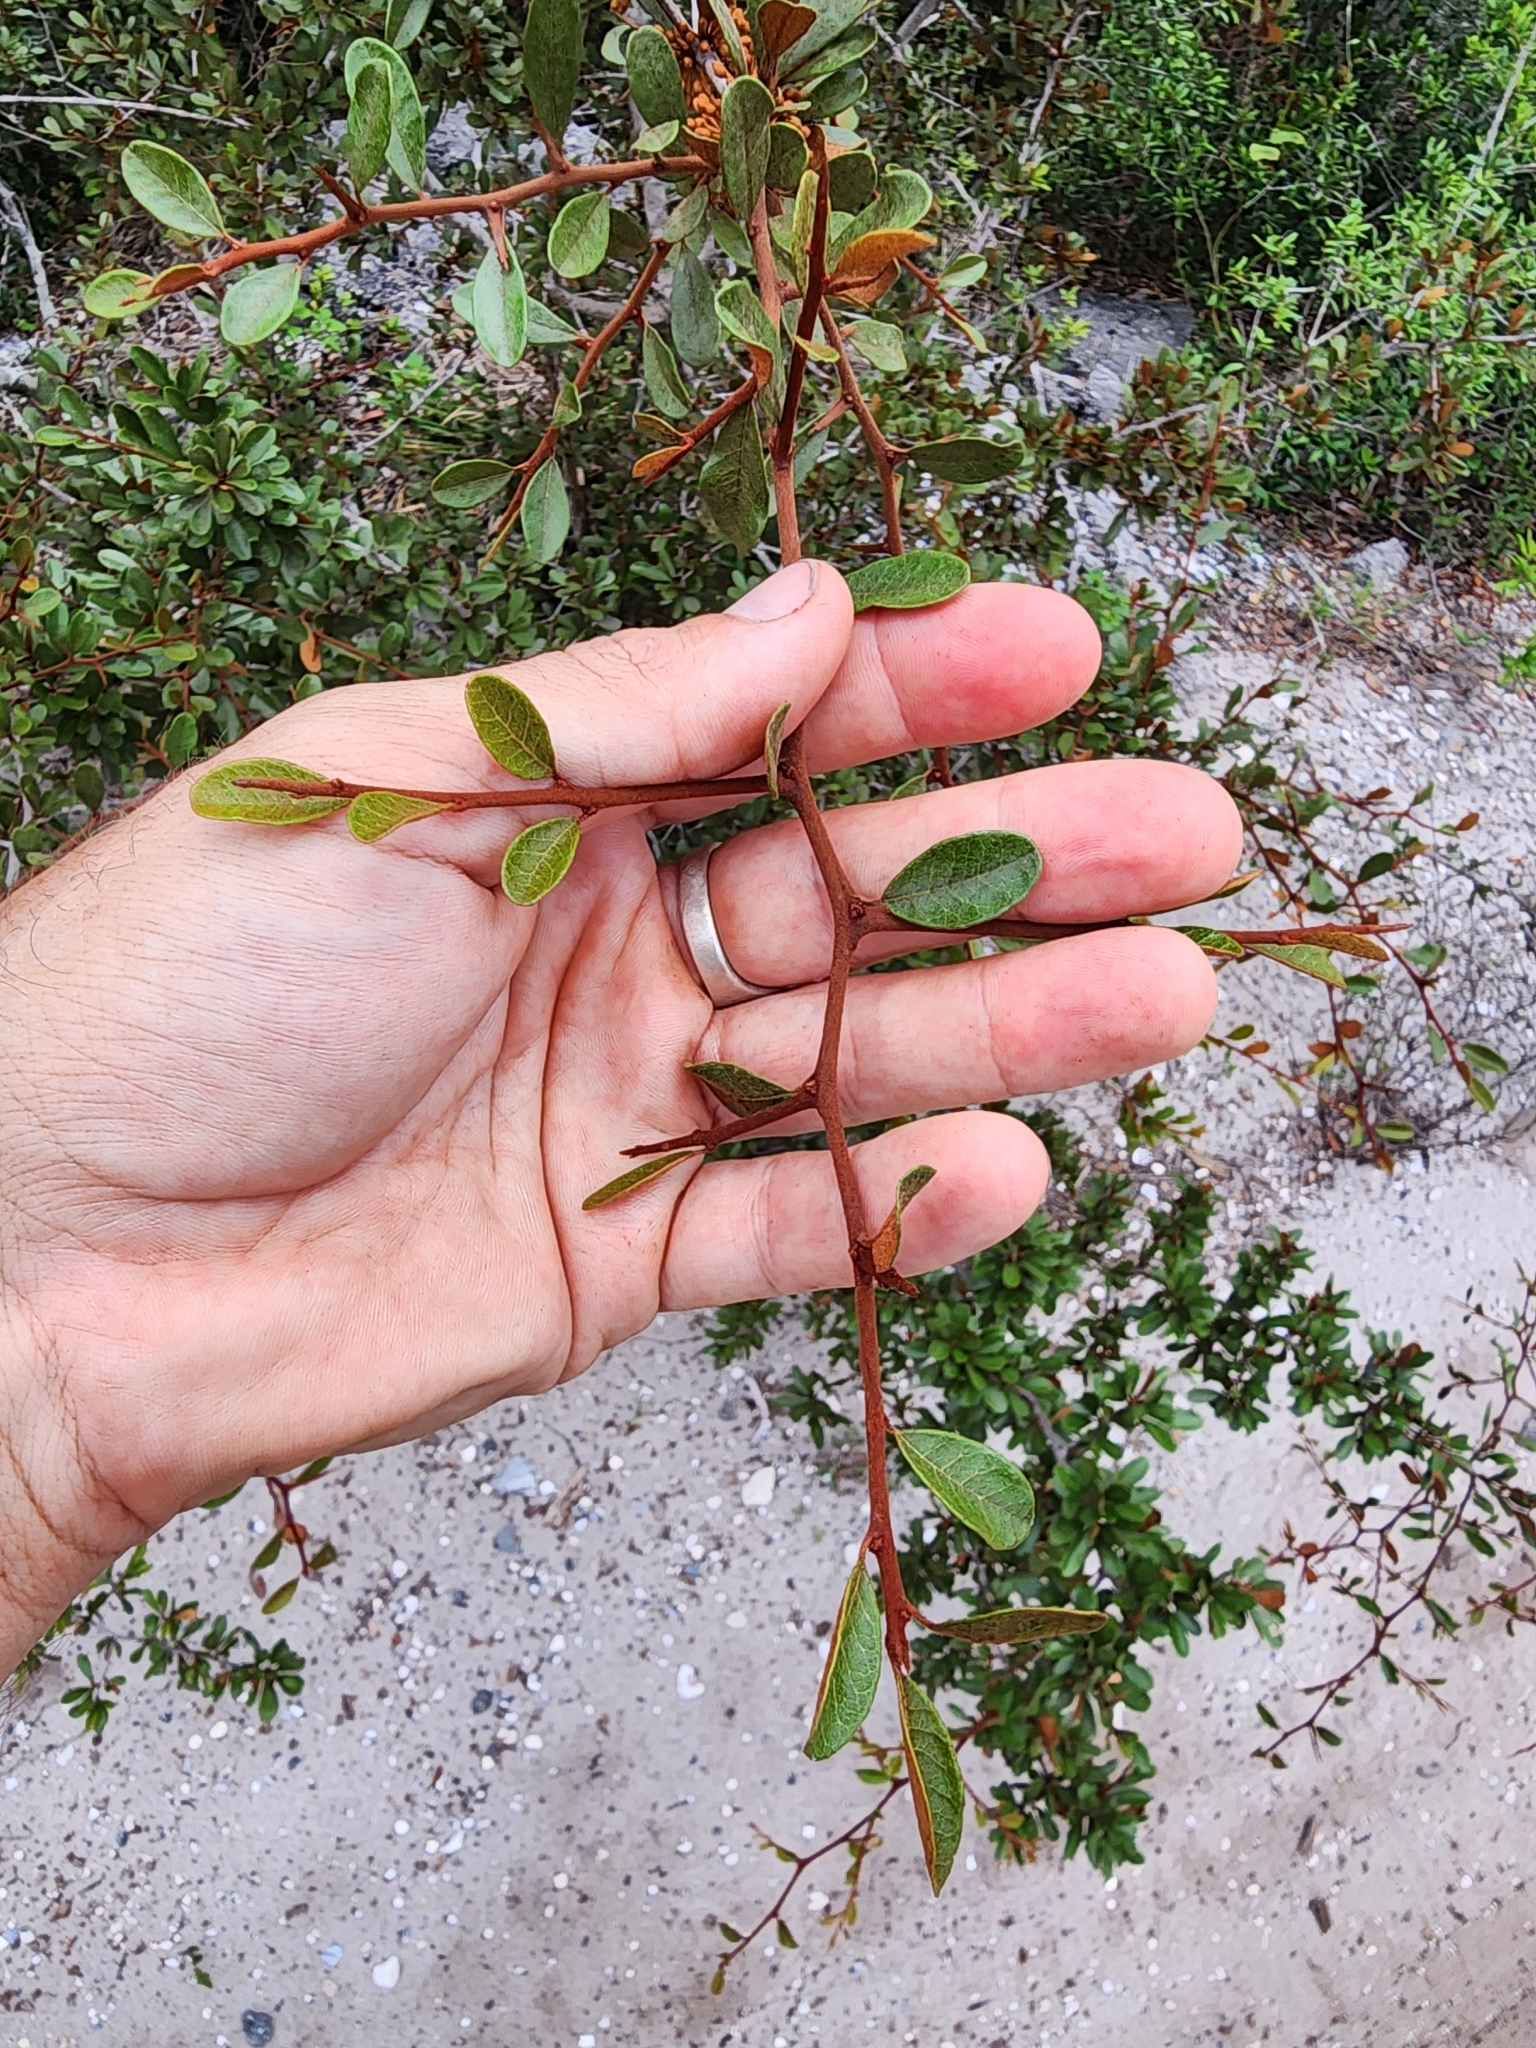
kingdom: Plantae
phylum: Tracheophyta
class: Magnoliopsida
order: Ericales
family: Sapotaceae
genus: Sideroxylon
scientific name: Sideroxylon tenax
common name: Tough-buckthorn
